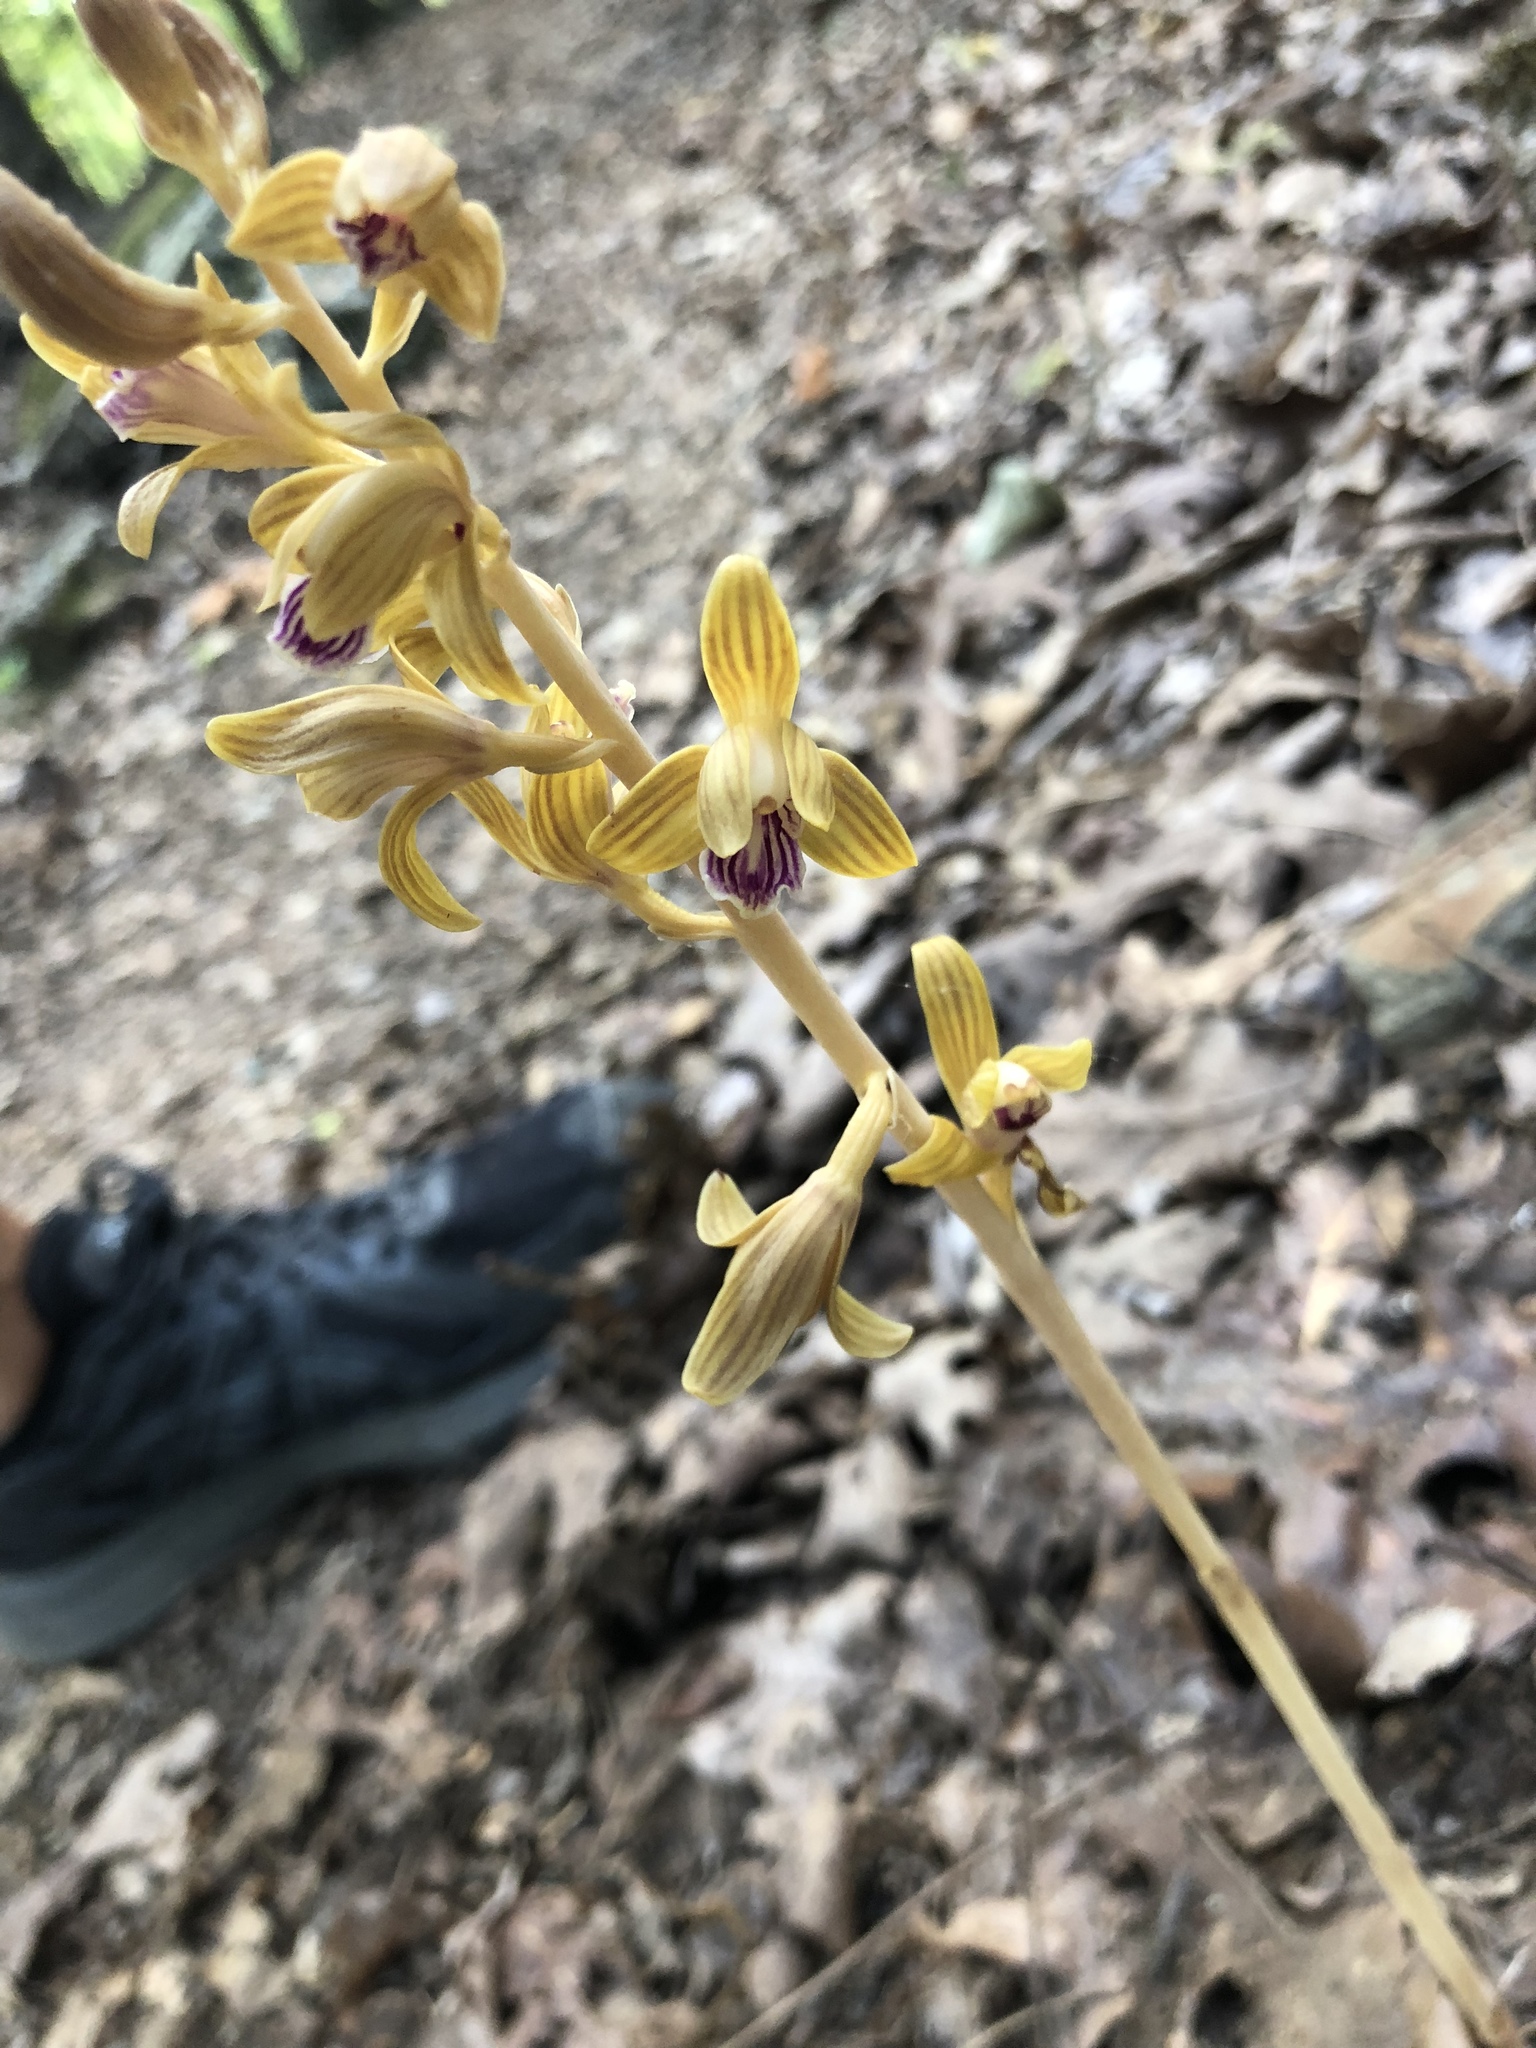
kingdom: Plantae
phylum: Tracheophyta
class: Liliopsida
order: Asparagales
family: Orchidaceae
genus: Bletia
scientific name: Bletia spicata
